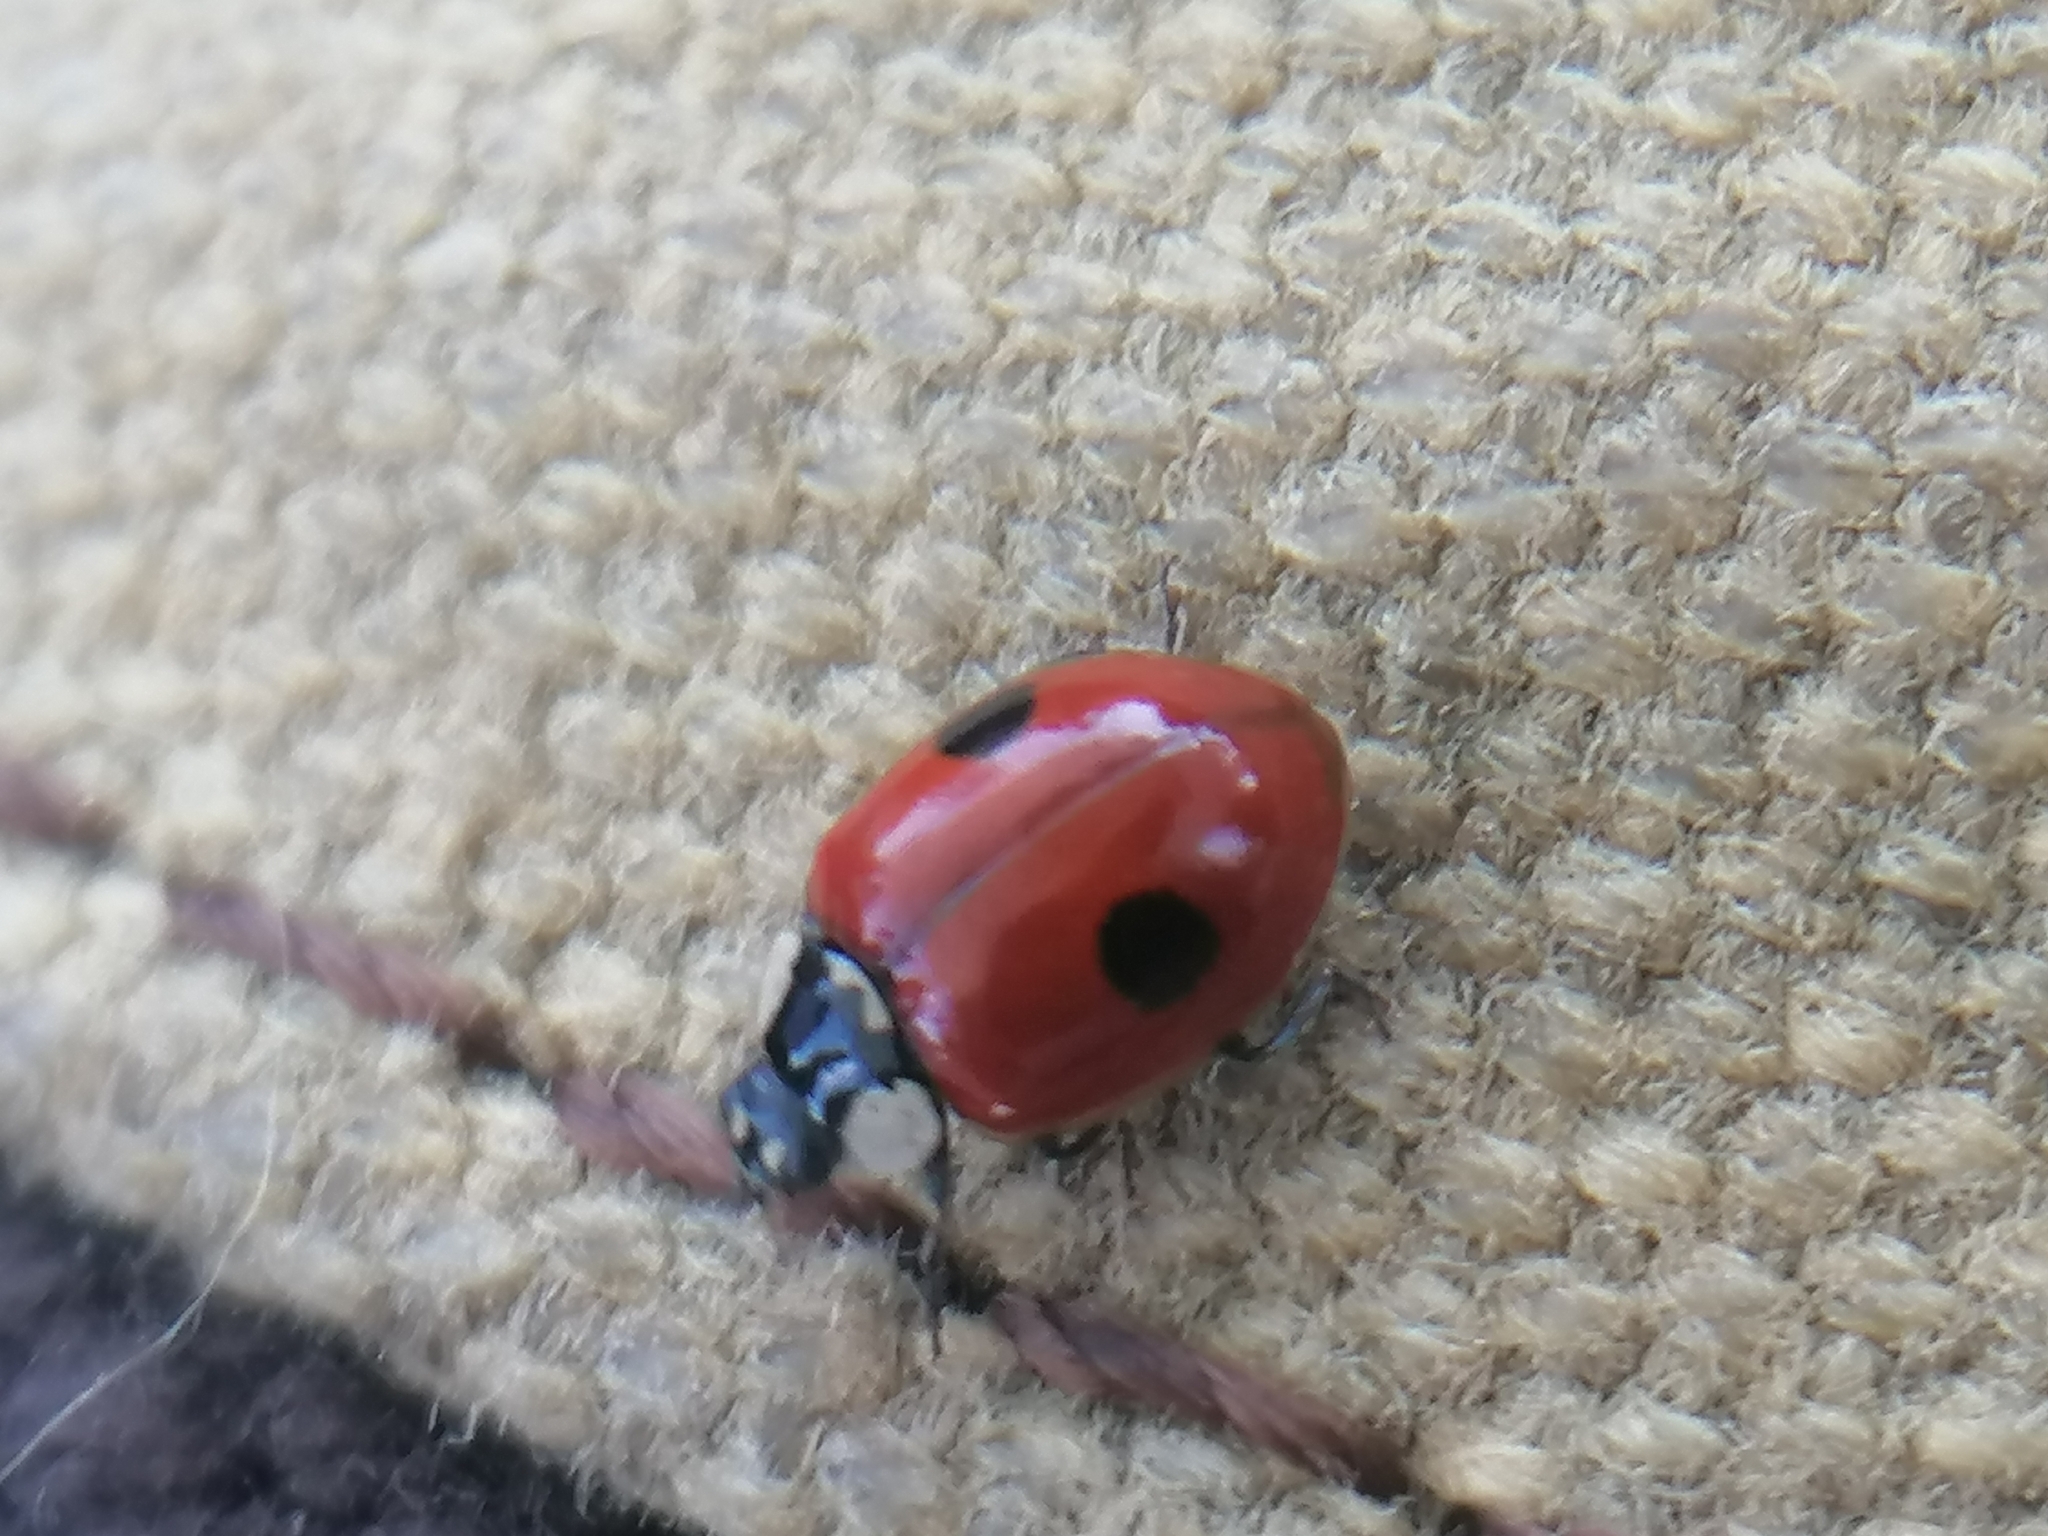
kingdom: Animalia
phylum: Arthropoda
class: Insecta
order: Coleoptera
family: Coccinellidae
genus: Adalia
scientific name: Adalia bipunctata
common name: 2-spot ladybird
